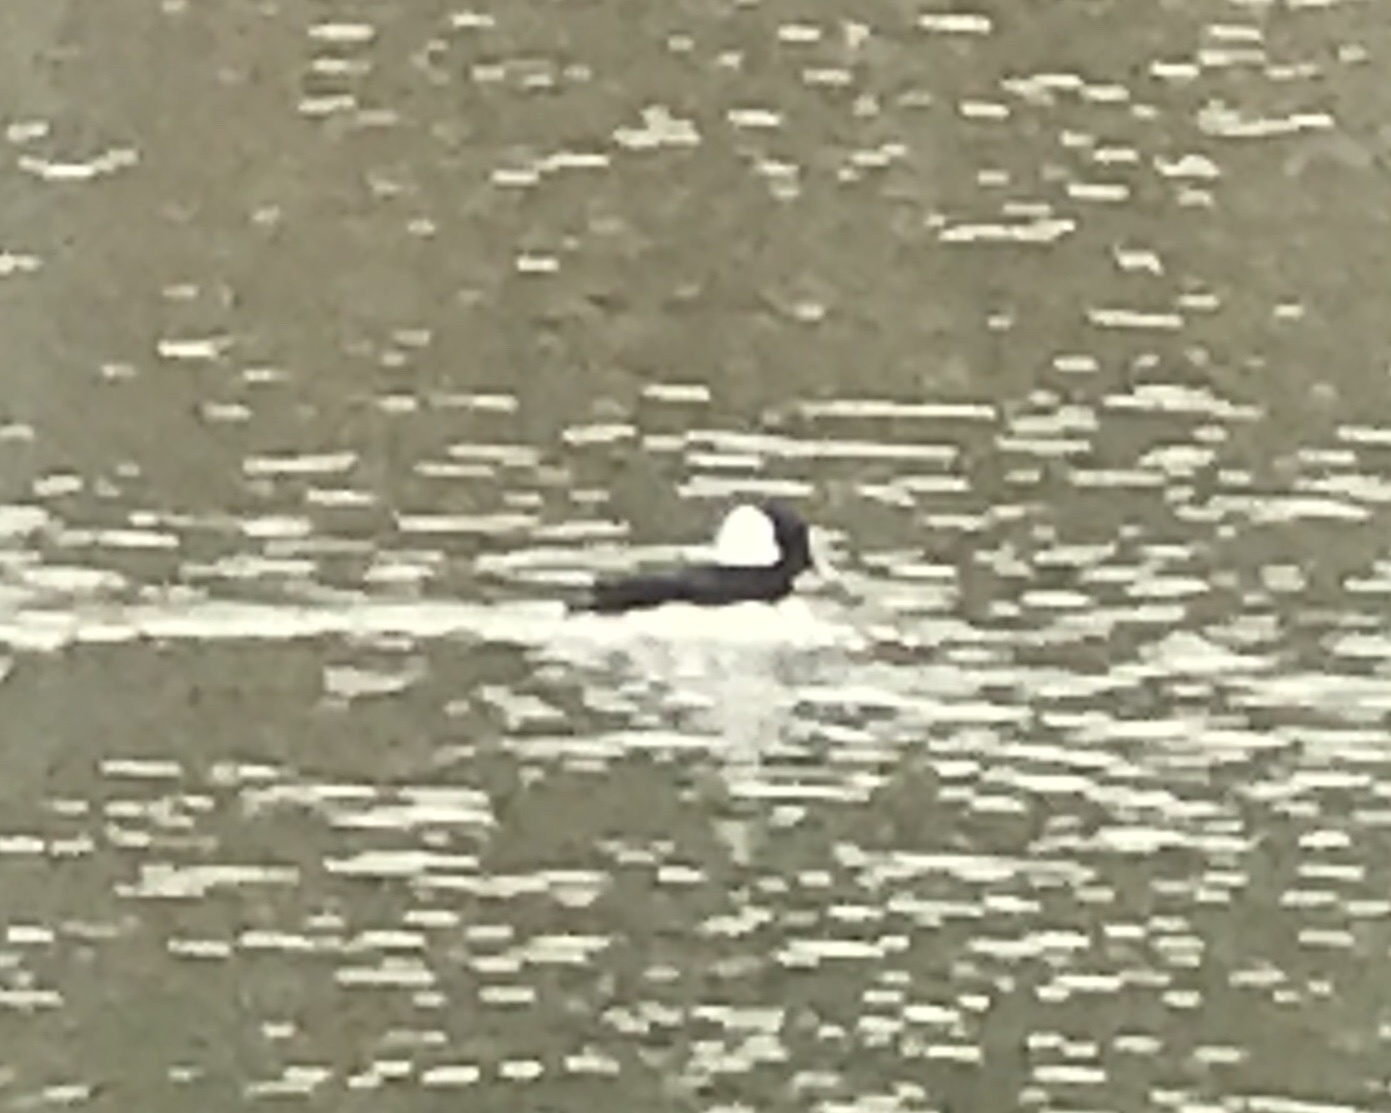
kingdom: Animalia
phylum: Chordata
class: Aves
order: Anseriformes
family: Anatidae
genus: Bucephala
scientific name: Bucephala albeola
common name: Bufflehead
